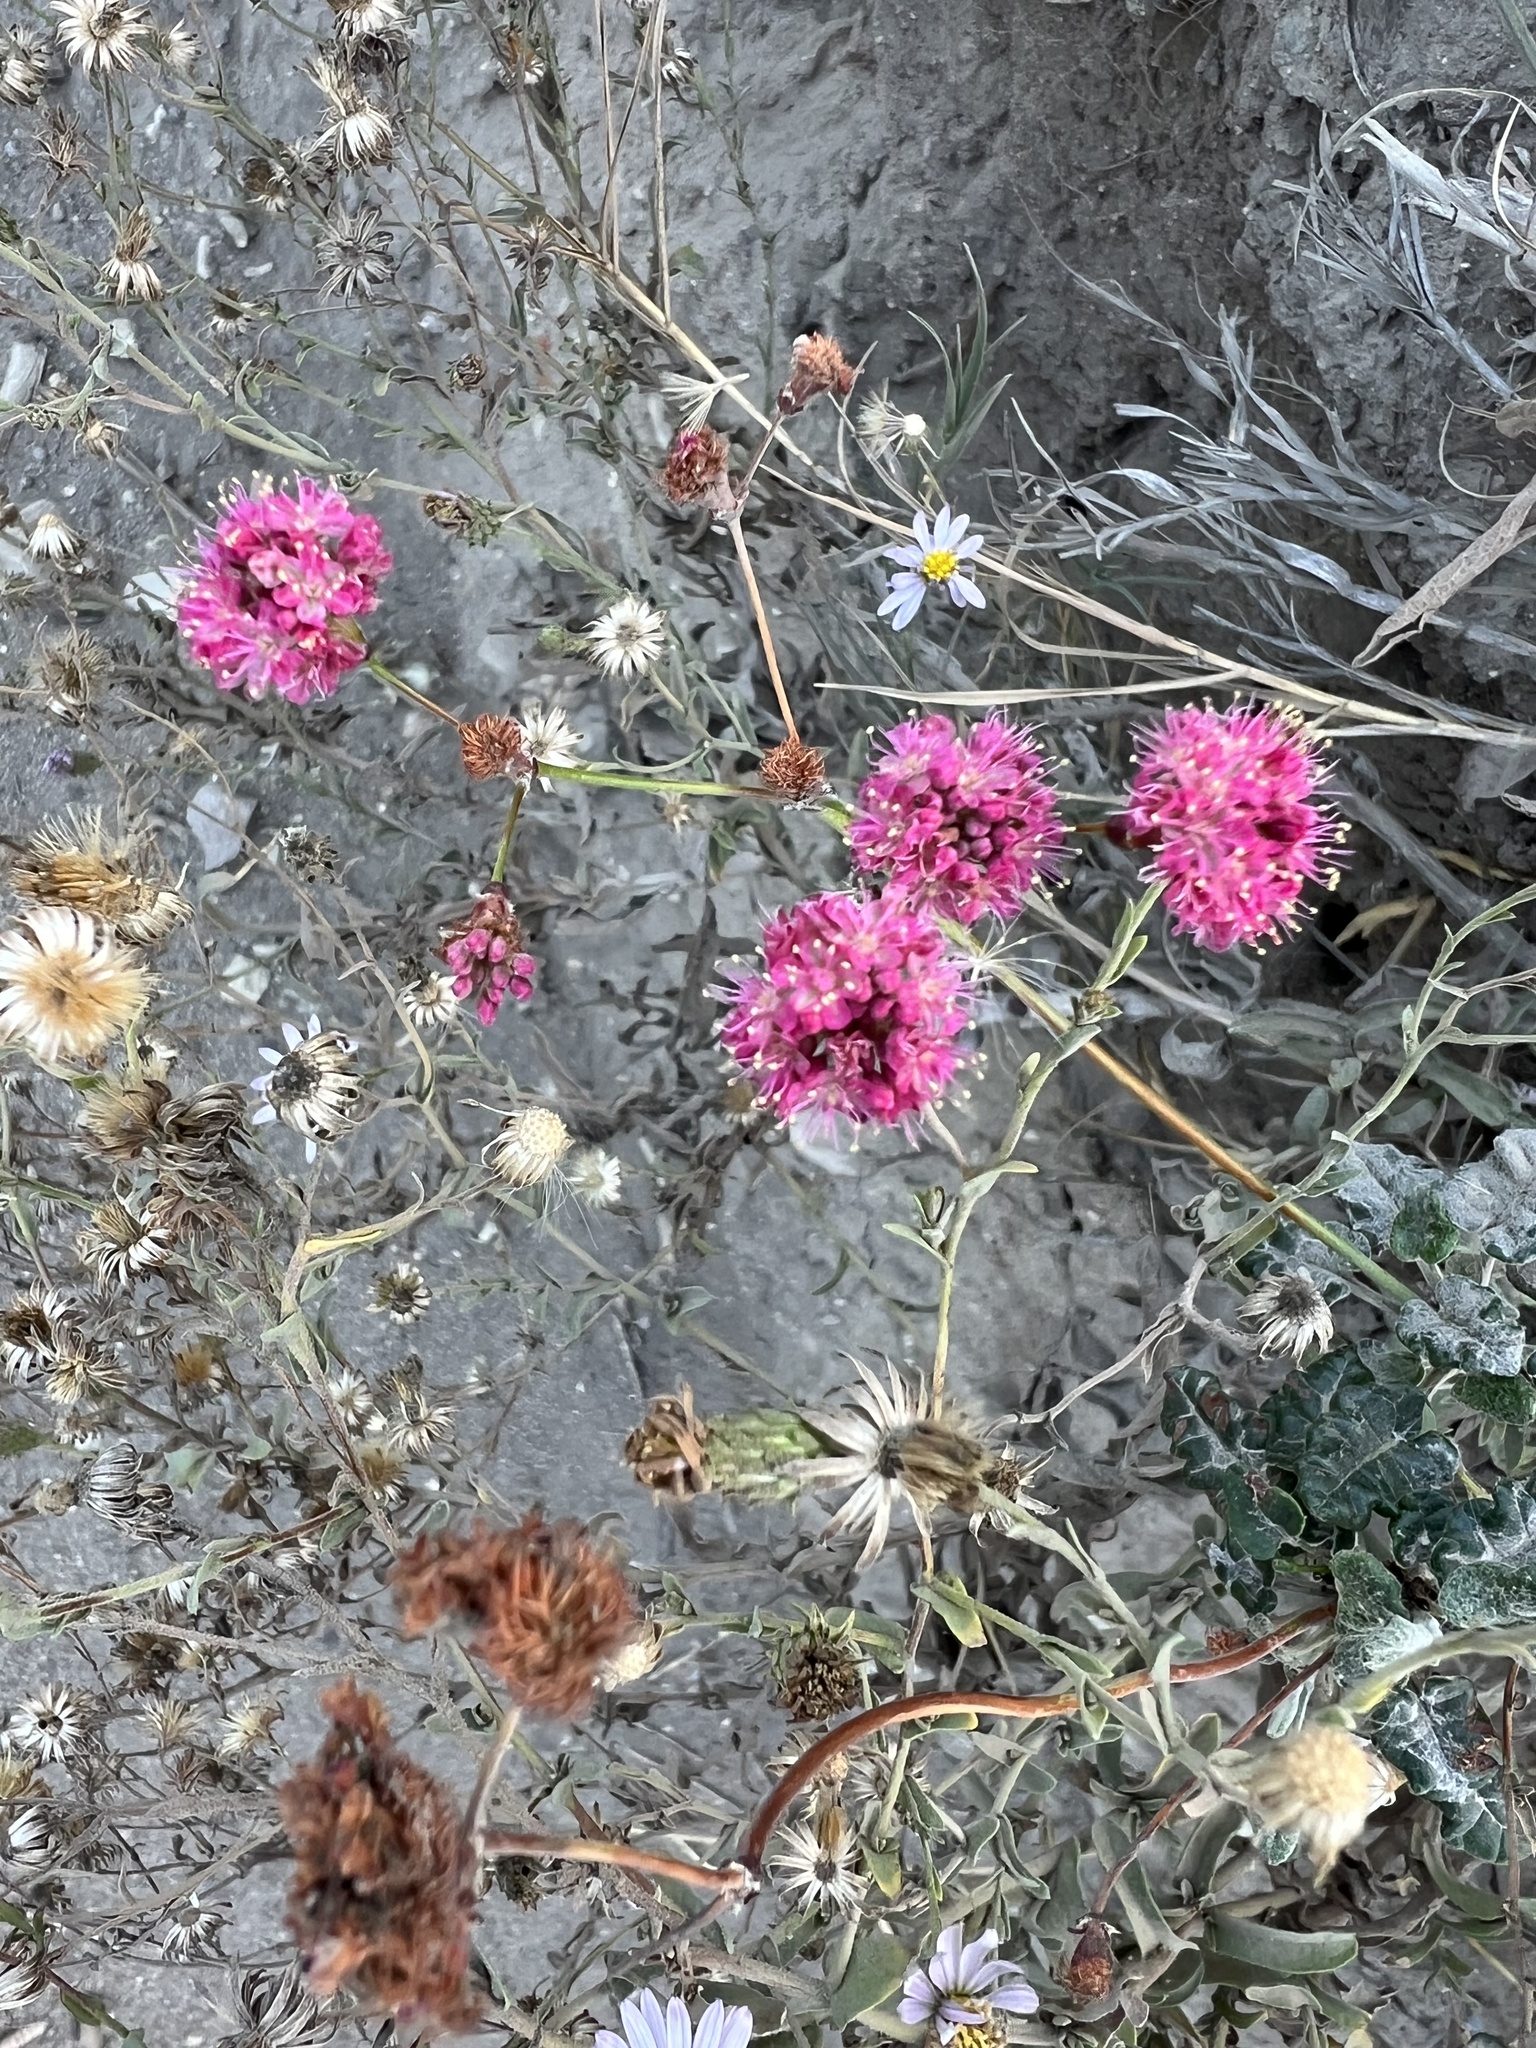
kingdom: Plantae
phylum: Tracheophyta
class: Magnoliopsida
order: Caryophyllales
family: Polygonaceae
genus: Eriogonum
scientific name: Eriogonum grande
